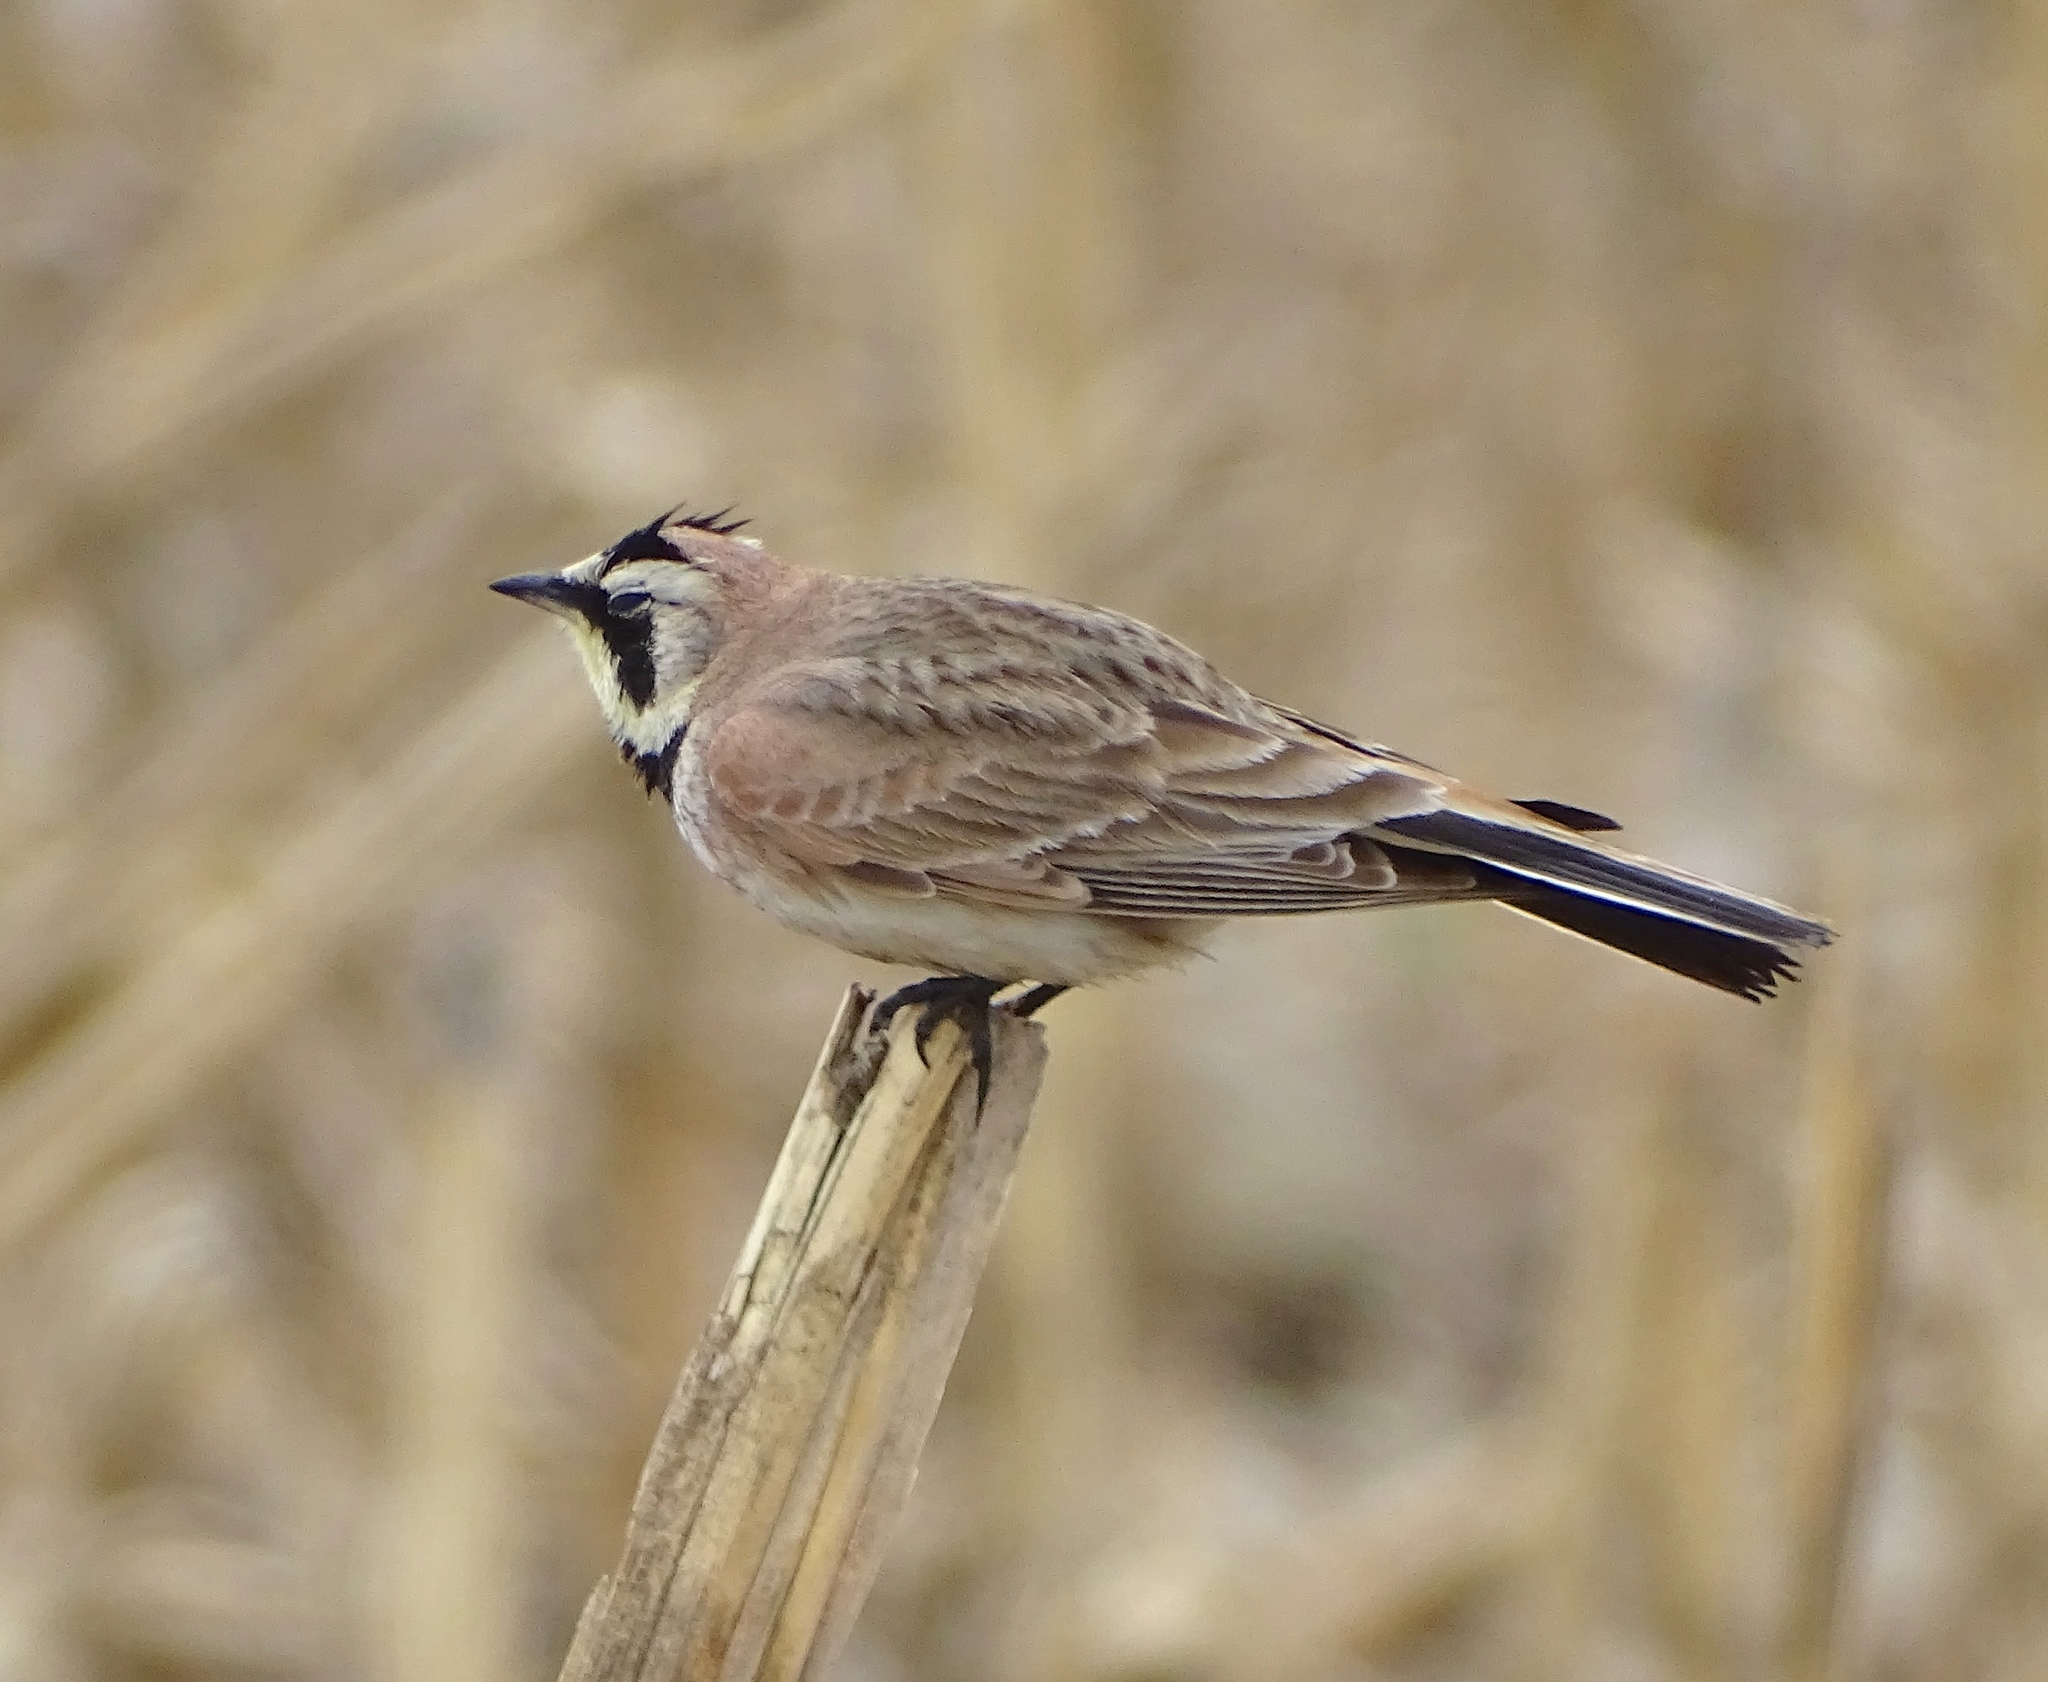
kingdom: Animalia
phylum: Chordata
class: Aves
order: Passeriformes
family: Alaudidae
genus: Eremophila
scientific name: Eremophila alpestris
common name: Horned lark
